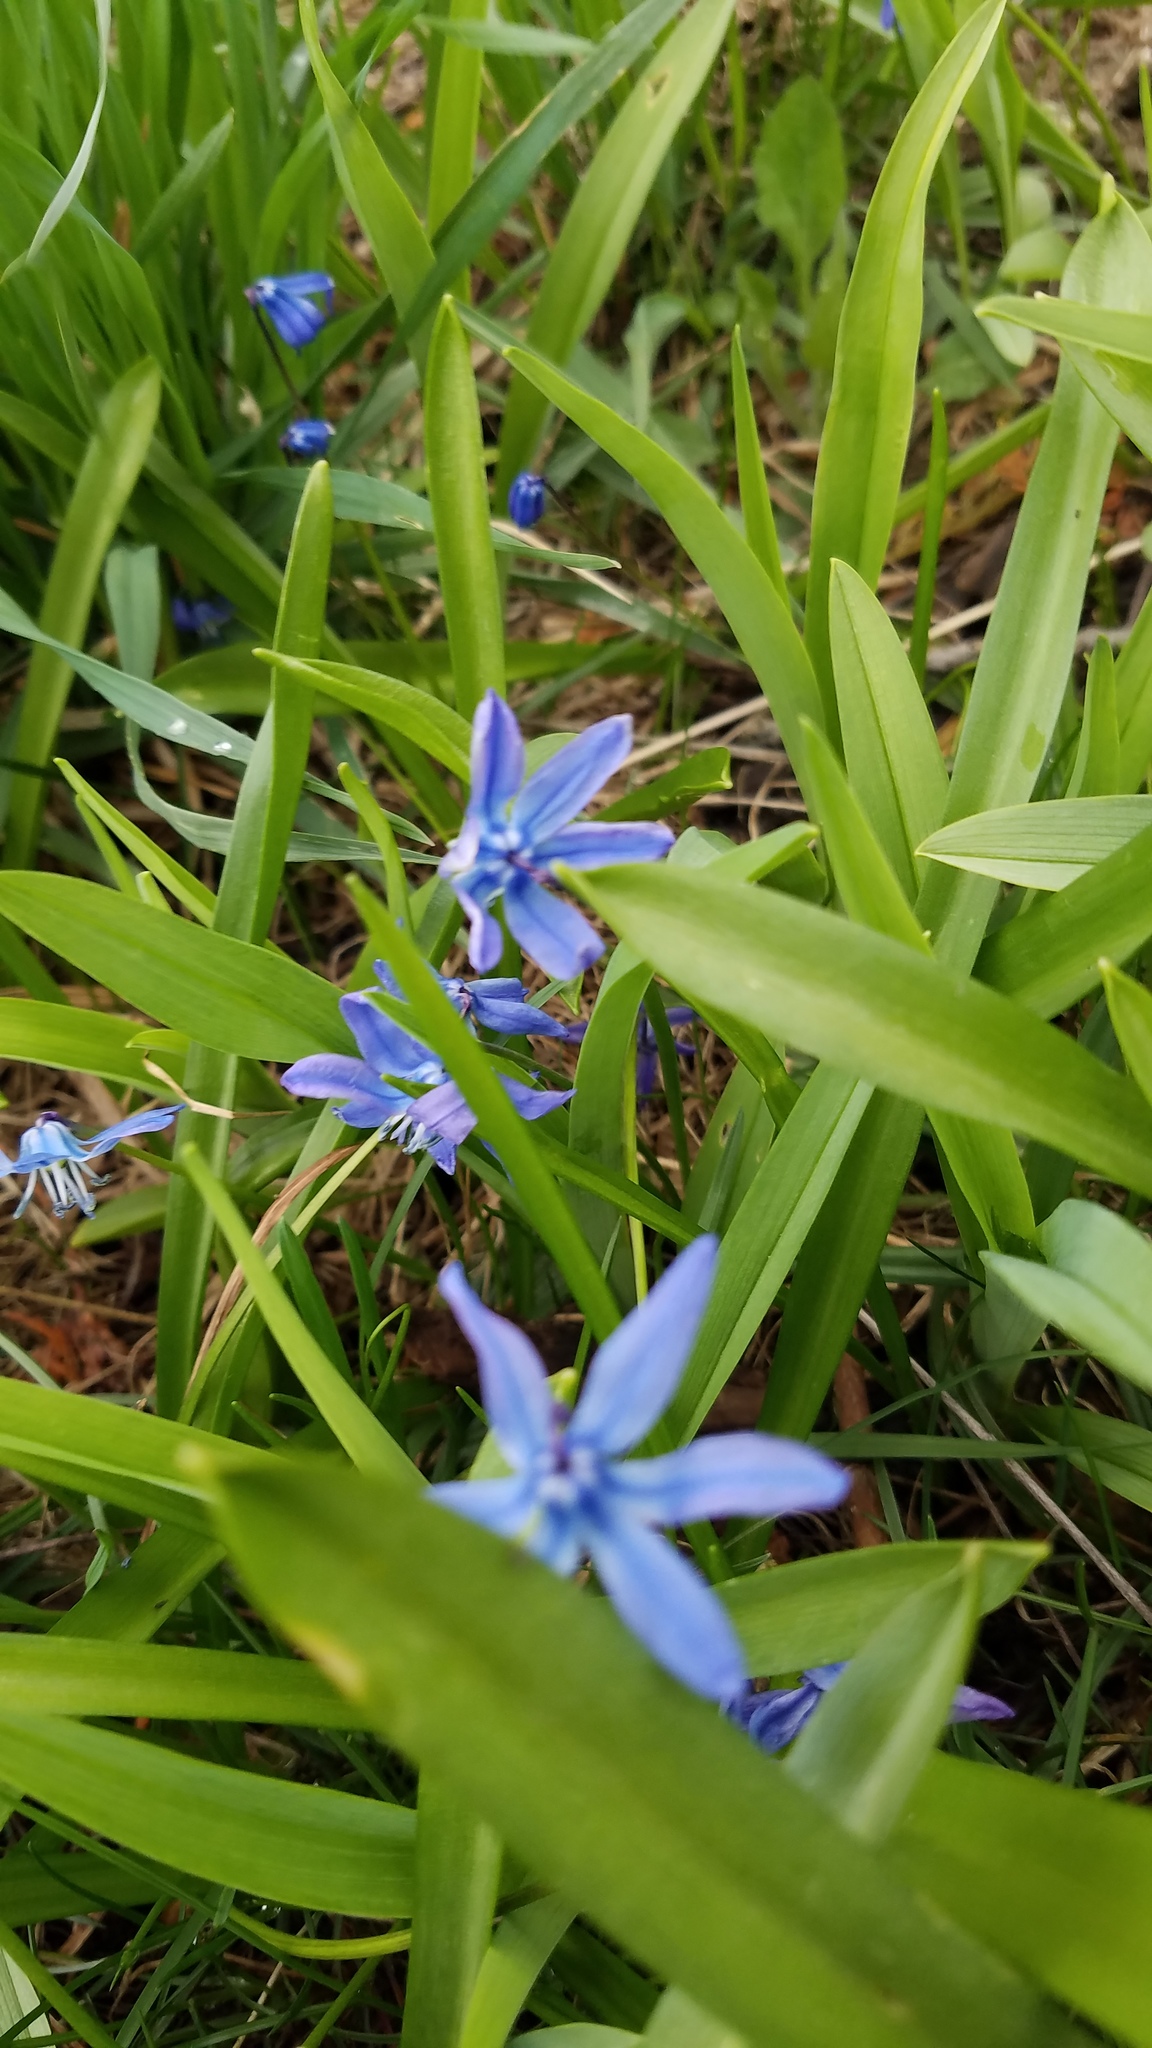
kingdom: Plantae
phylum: Tracheophyta
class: Liliopsida
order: Asparagales
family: Asparagaceae
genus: Scilla
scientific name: Scilla siberica
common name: Siberian squill
